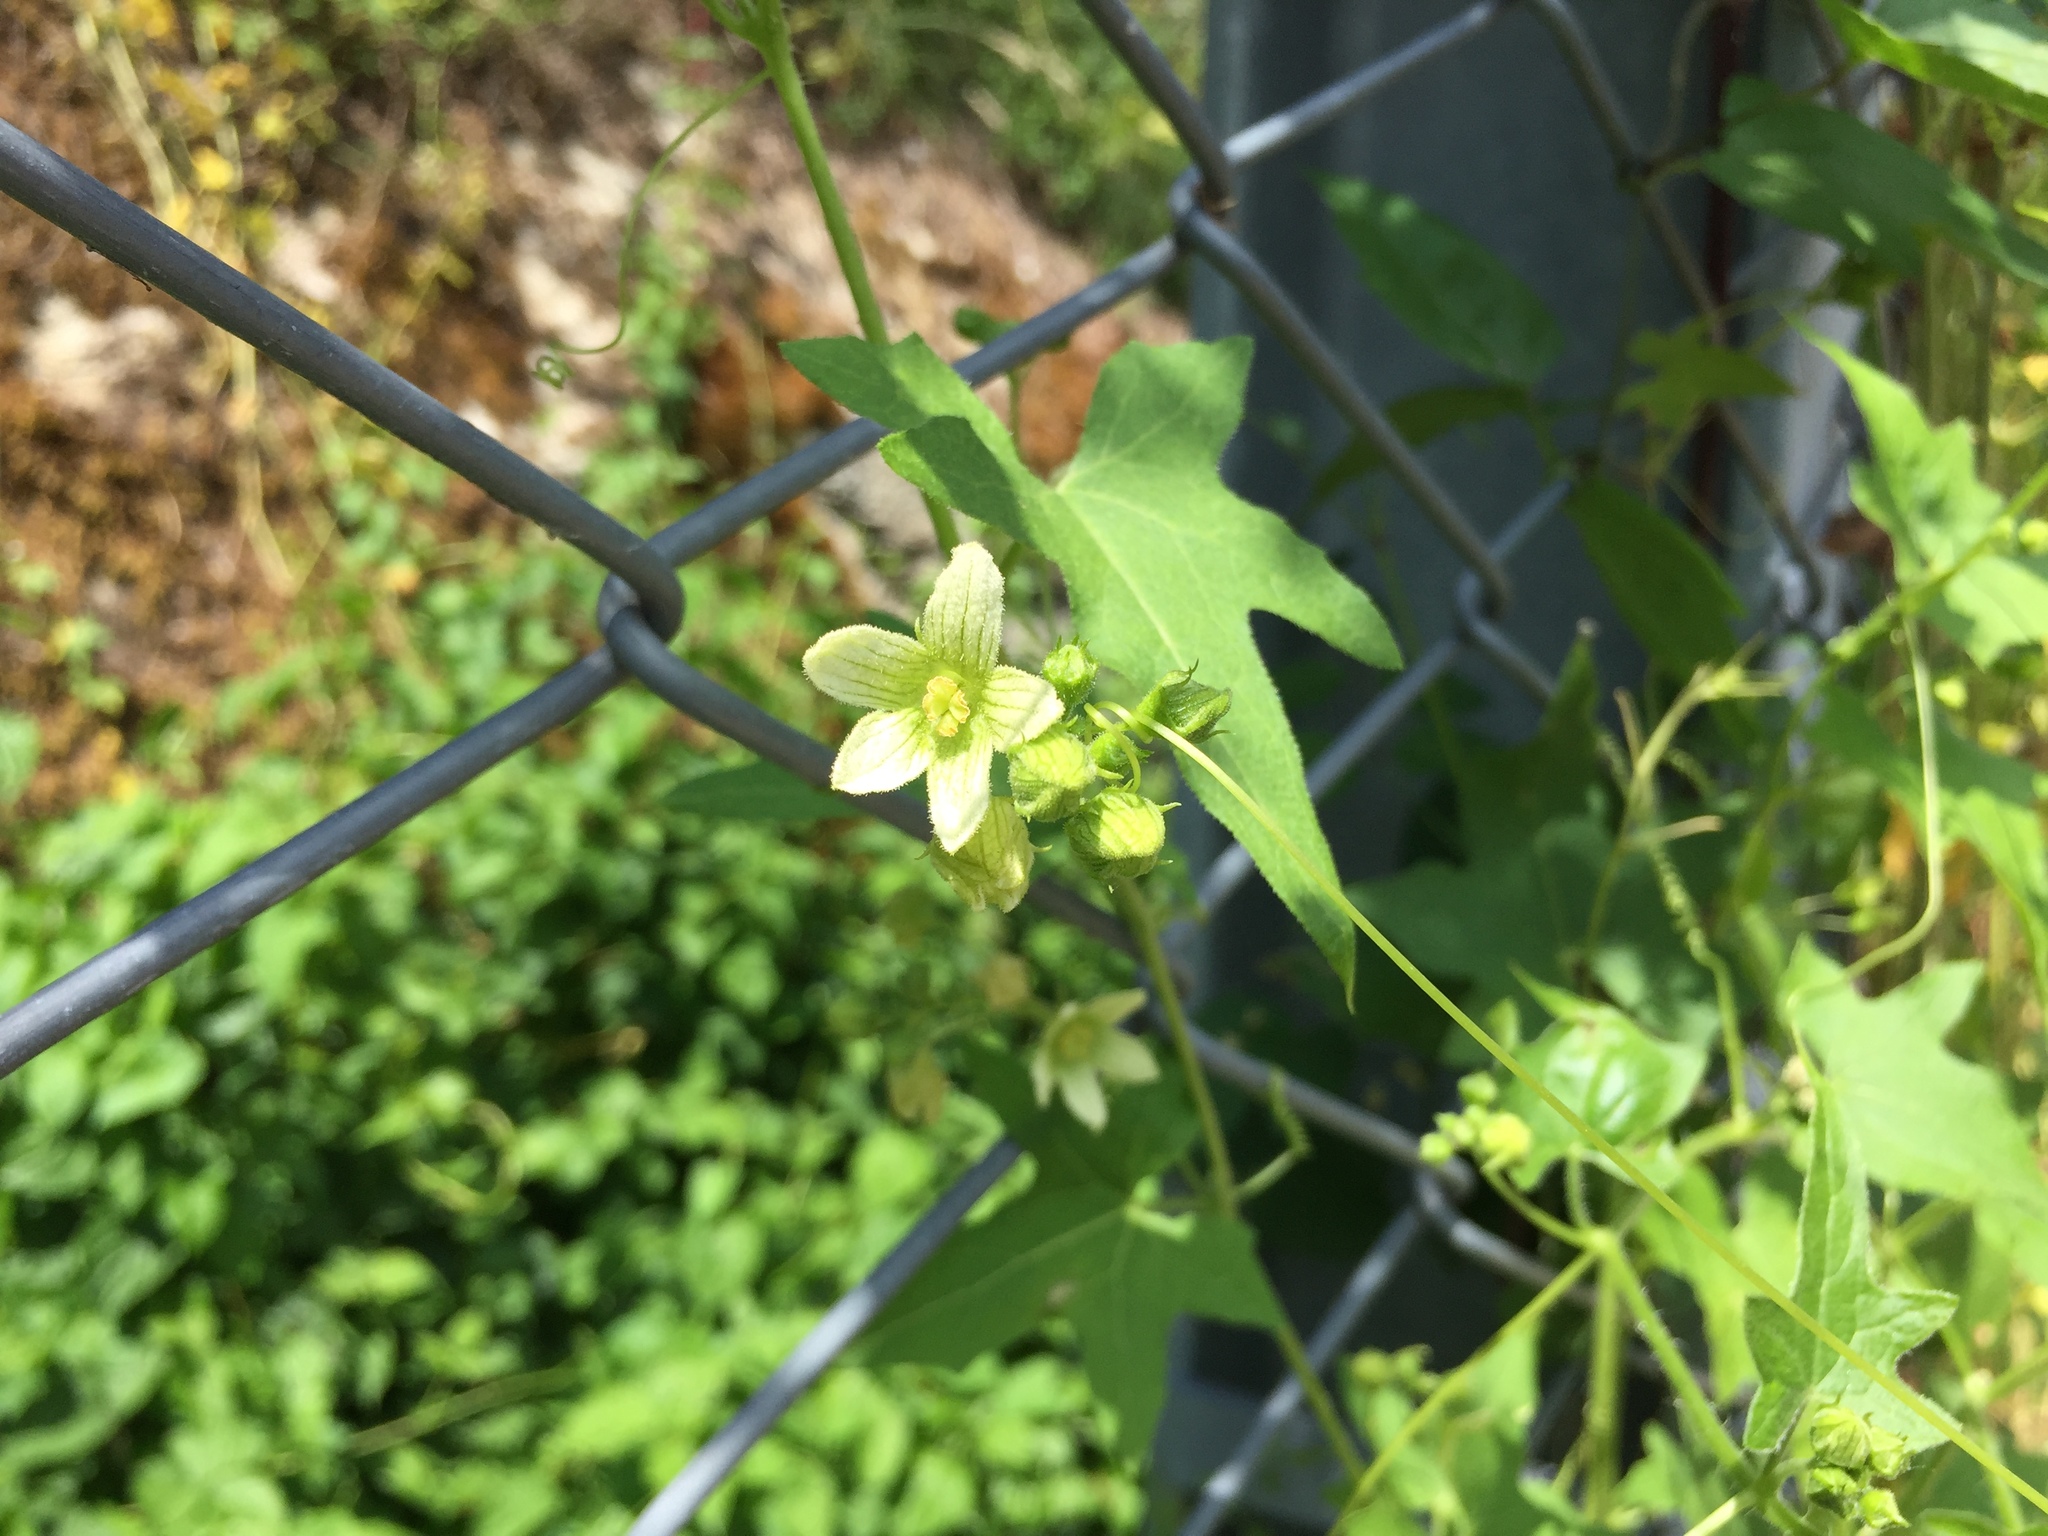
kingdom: Plantae
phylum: Tracheophyta
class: Magnoliopsida
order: Cucurbitales
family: Cucurbitaceae
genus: Bryonia
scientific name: Bryonia cretica
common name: Cretan bryony
